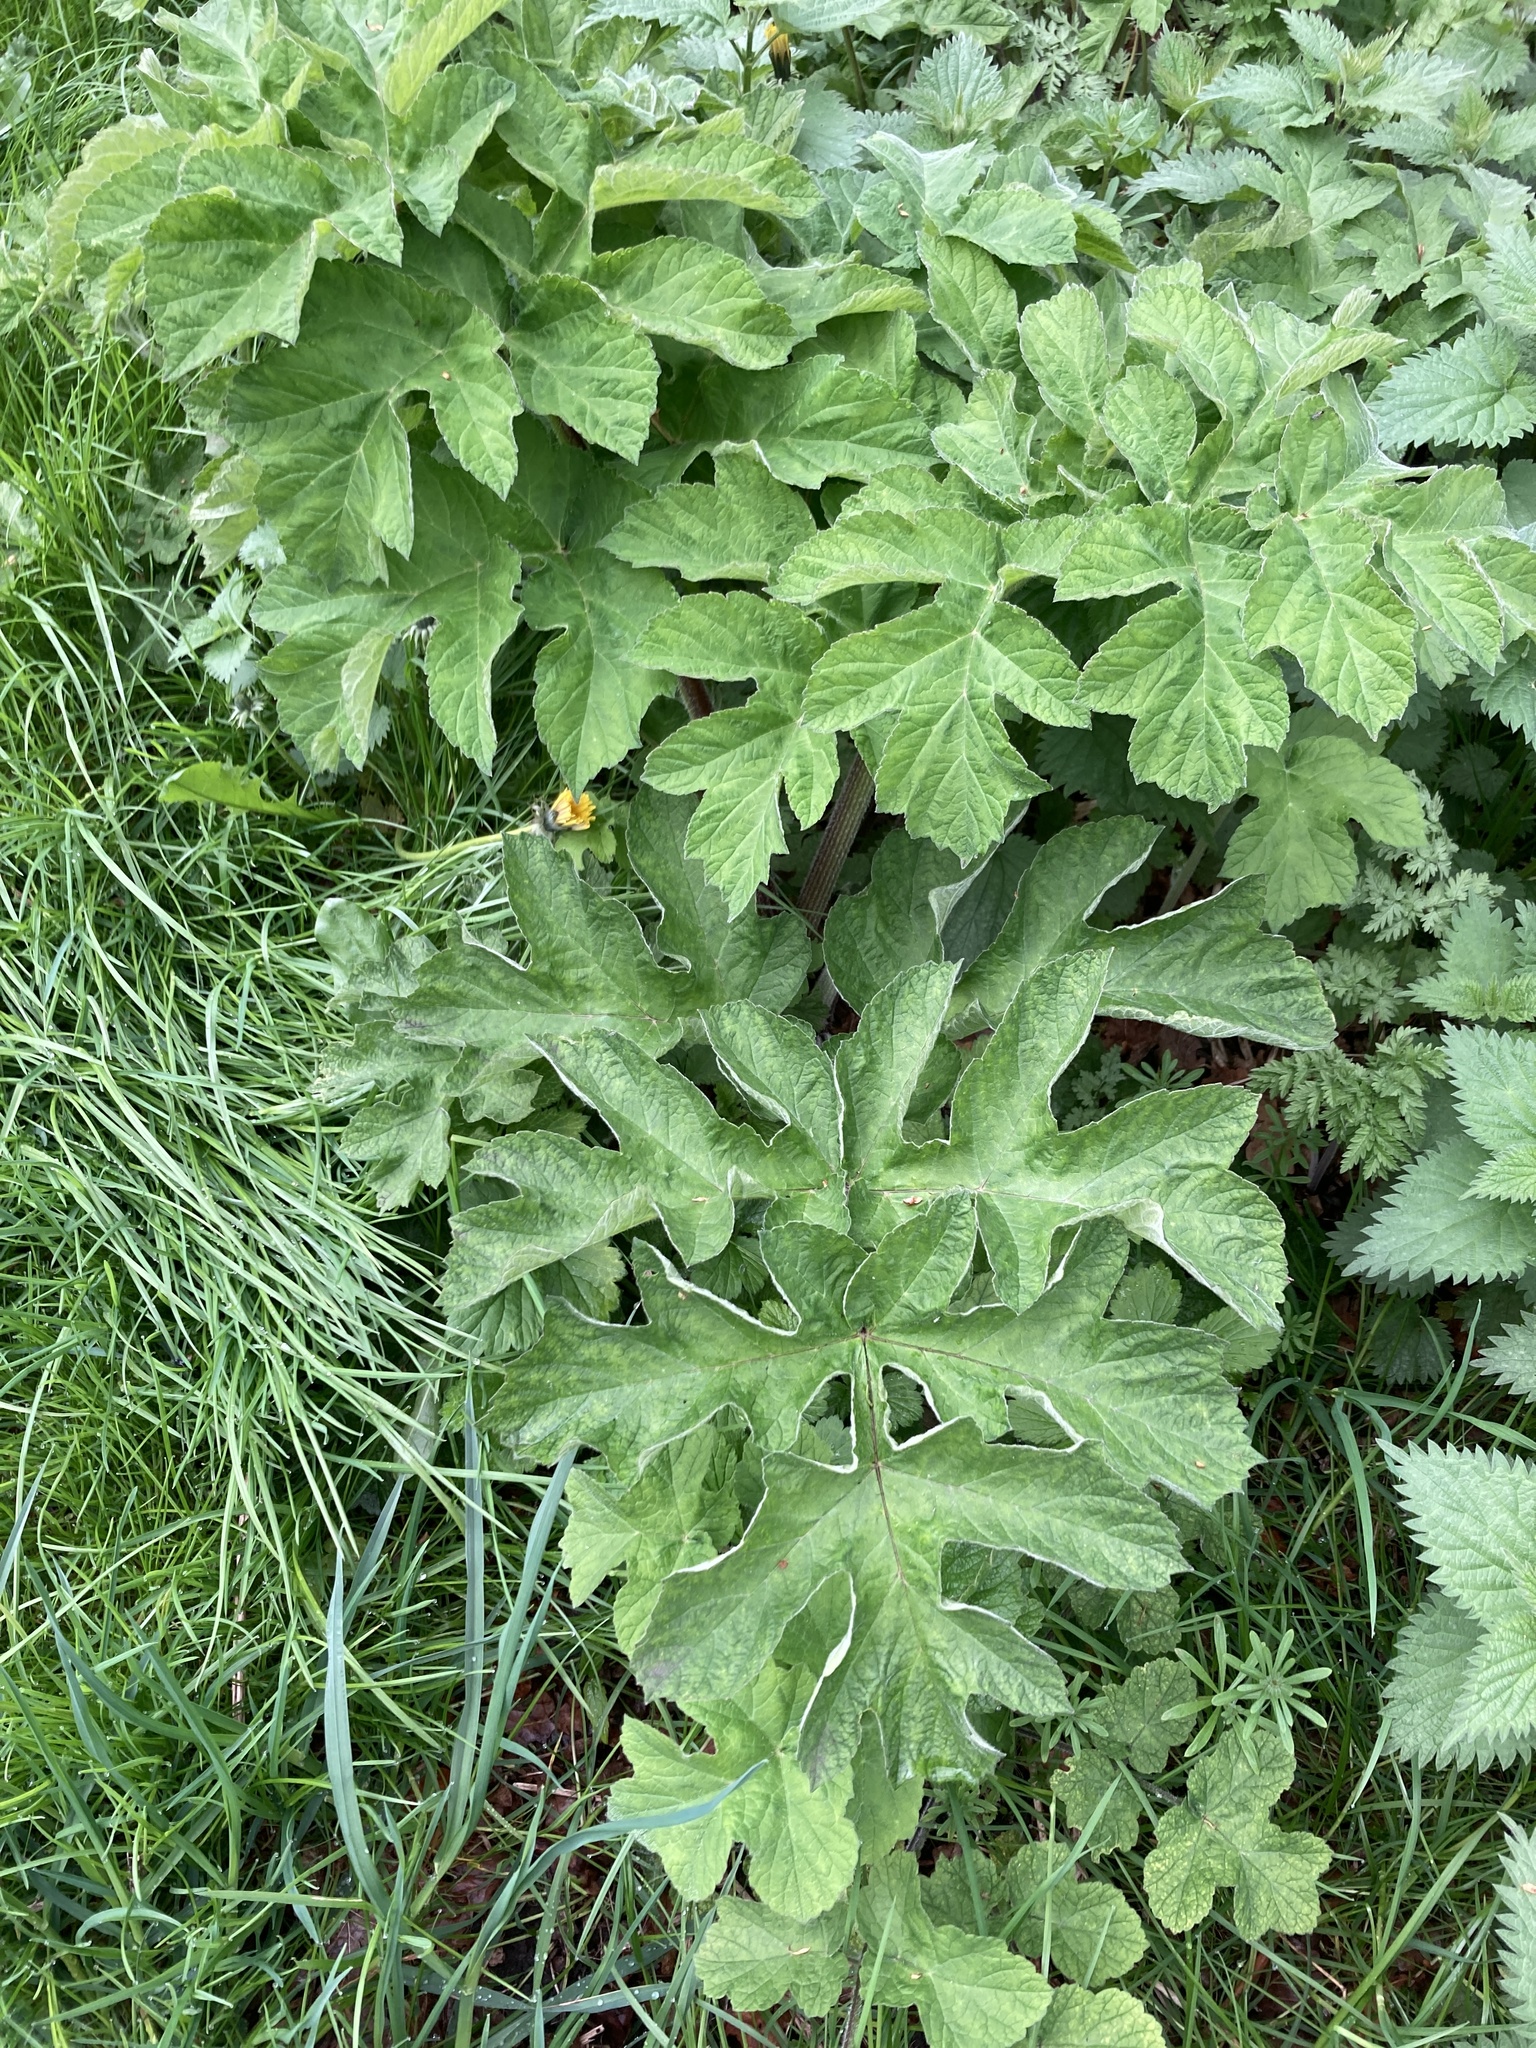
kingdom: Plantae
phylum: Tracheophyta
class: Magnoliopsida
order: Apiales
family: Apiaceae
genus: Heracleum
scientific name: Heracleum sphondylium
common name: Hogweed
